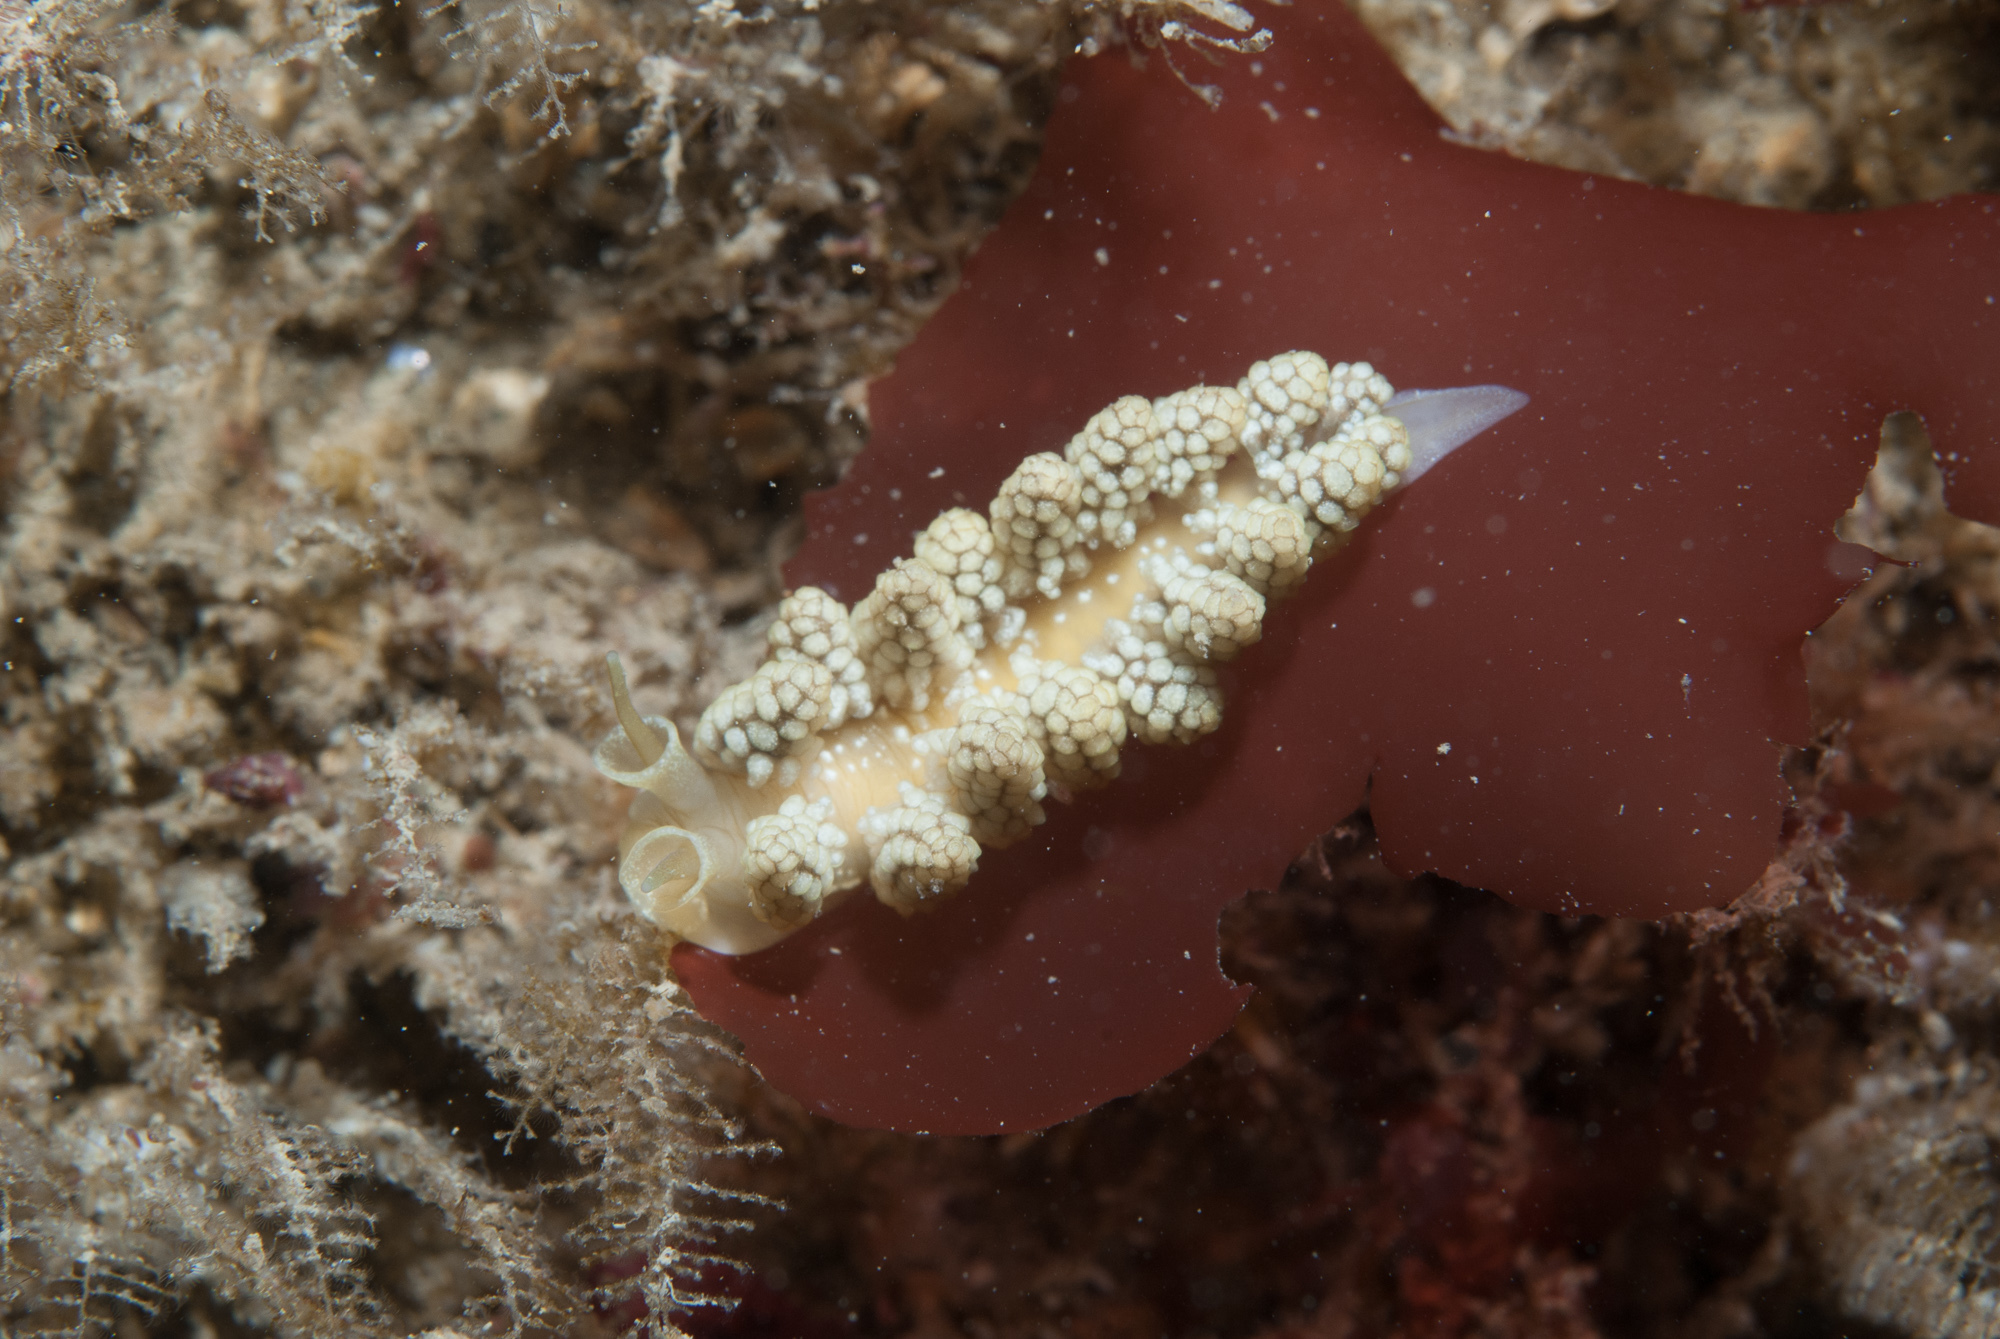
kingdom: Animalia
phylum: Mollusca
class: Gastropoda
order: Nudibranchia
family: Dotidae
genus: Doto
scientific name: Doto fragilis
